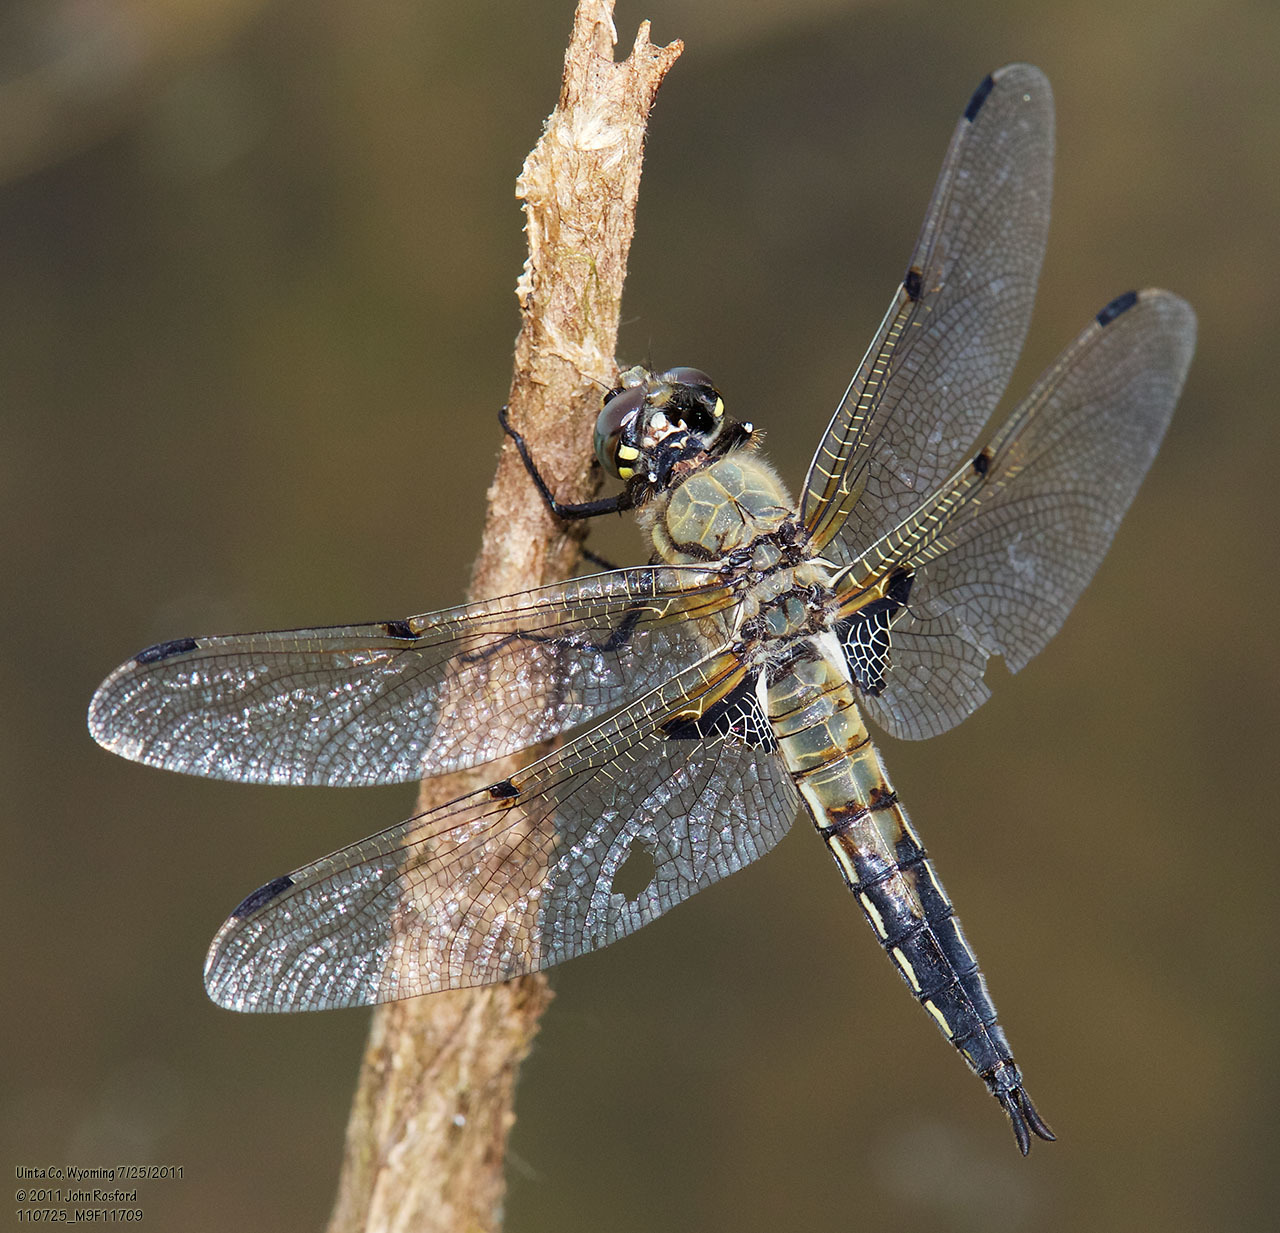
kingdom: Animalia
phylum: Arthropoda
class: Insecta
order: Odonata
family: Libellulidae
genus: Libellula
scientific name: Libellula quadrimaculata
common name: Four-spotted chaser
